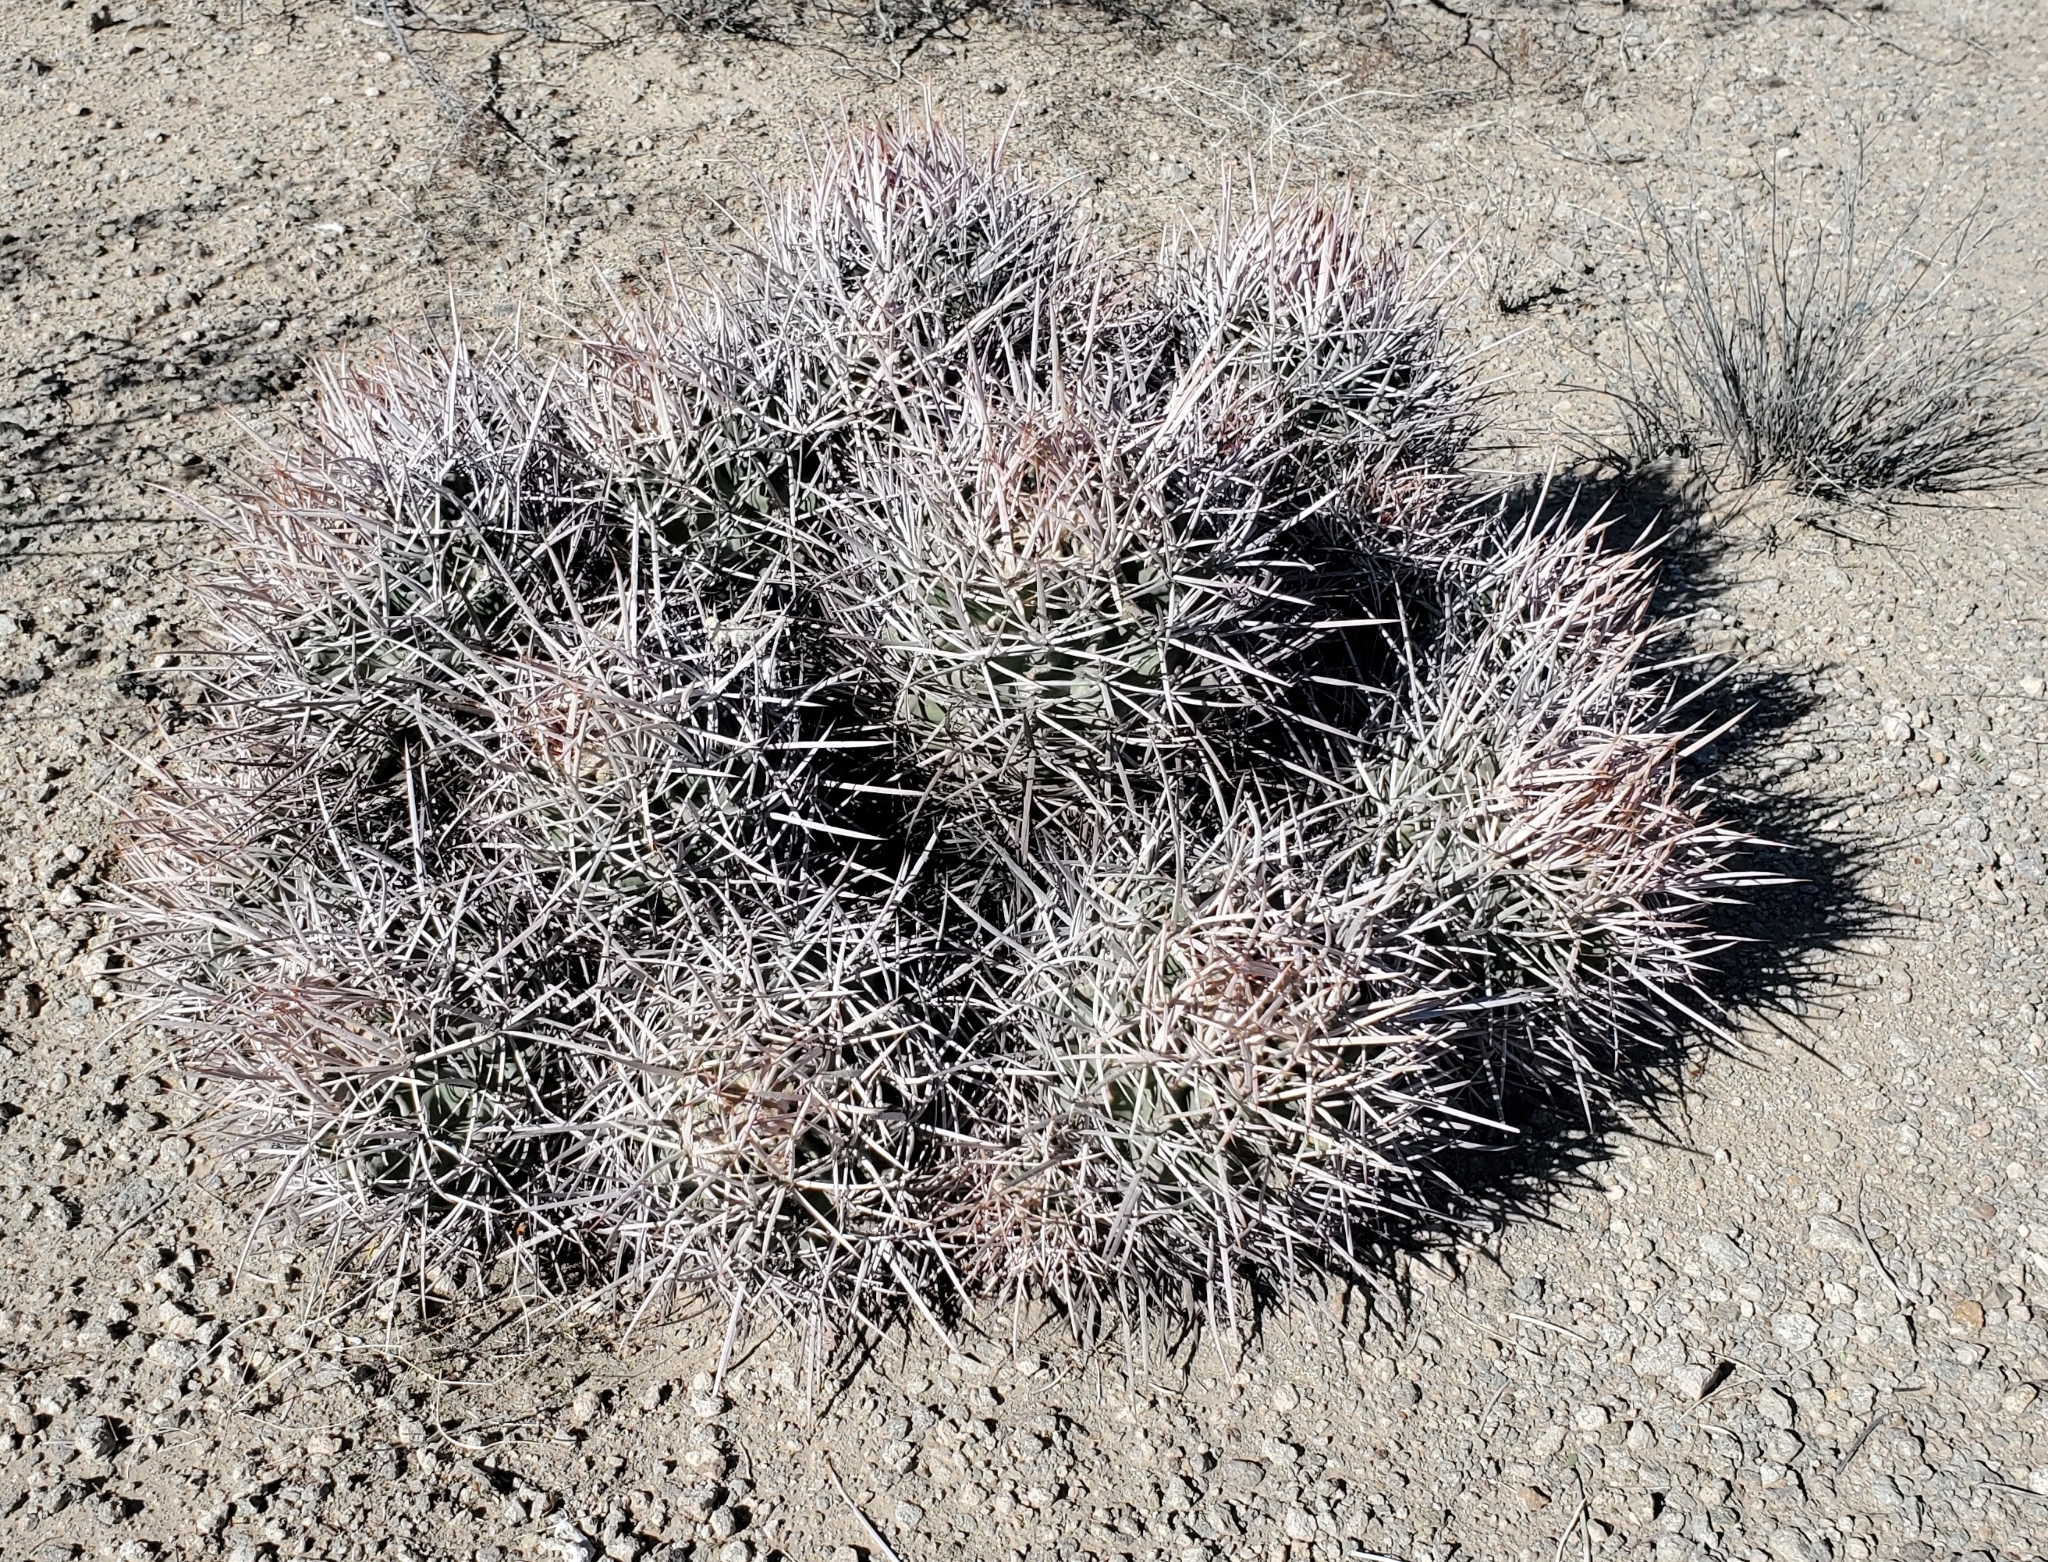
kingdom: Plantae
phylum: Tracheophyta
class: Magnoliopsida
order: Caryophyllales
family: Cactaceae
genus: Echinocactus
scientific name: Echinocactus polycephalus
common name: Cottontop cactus
